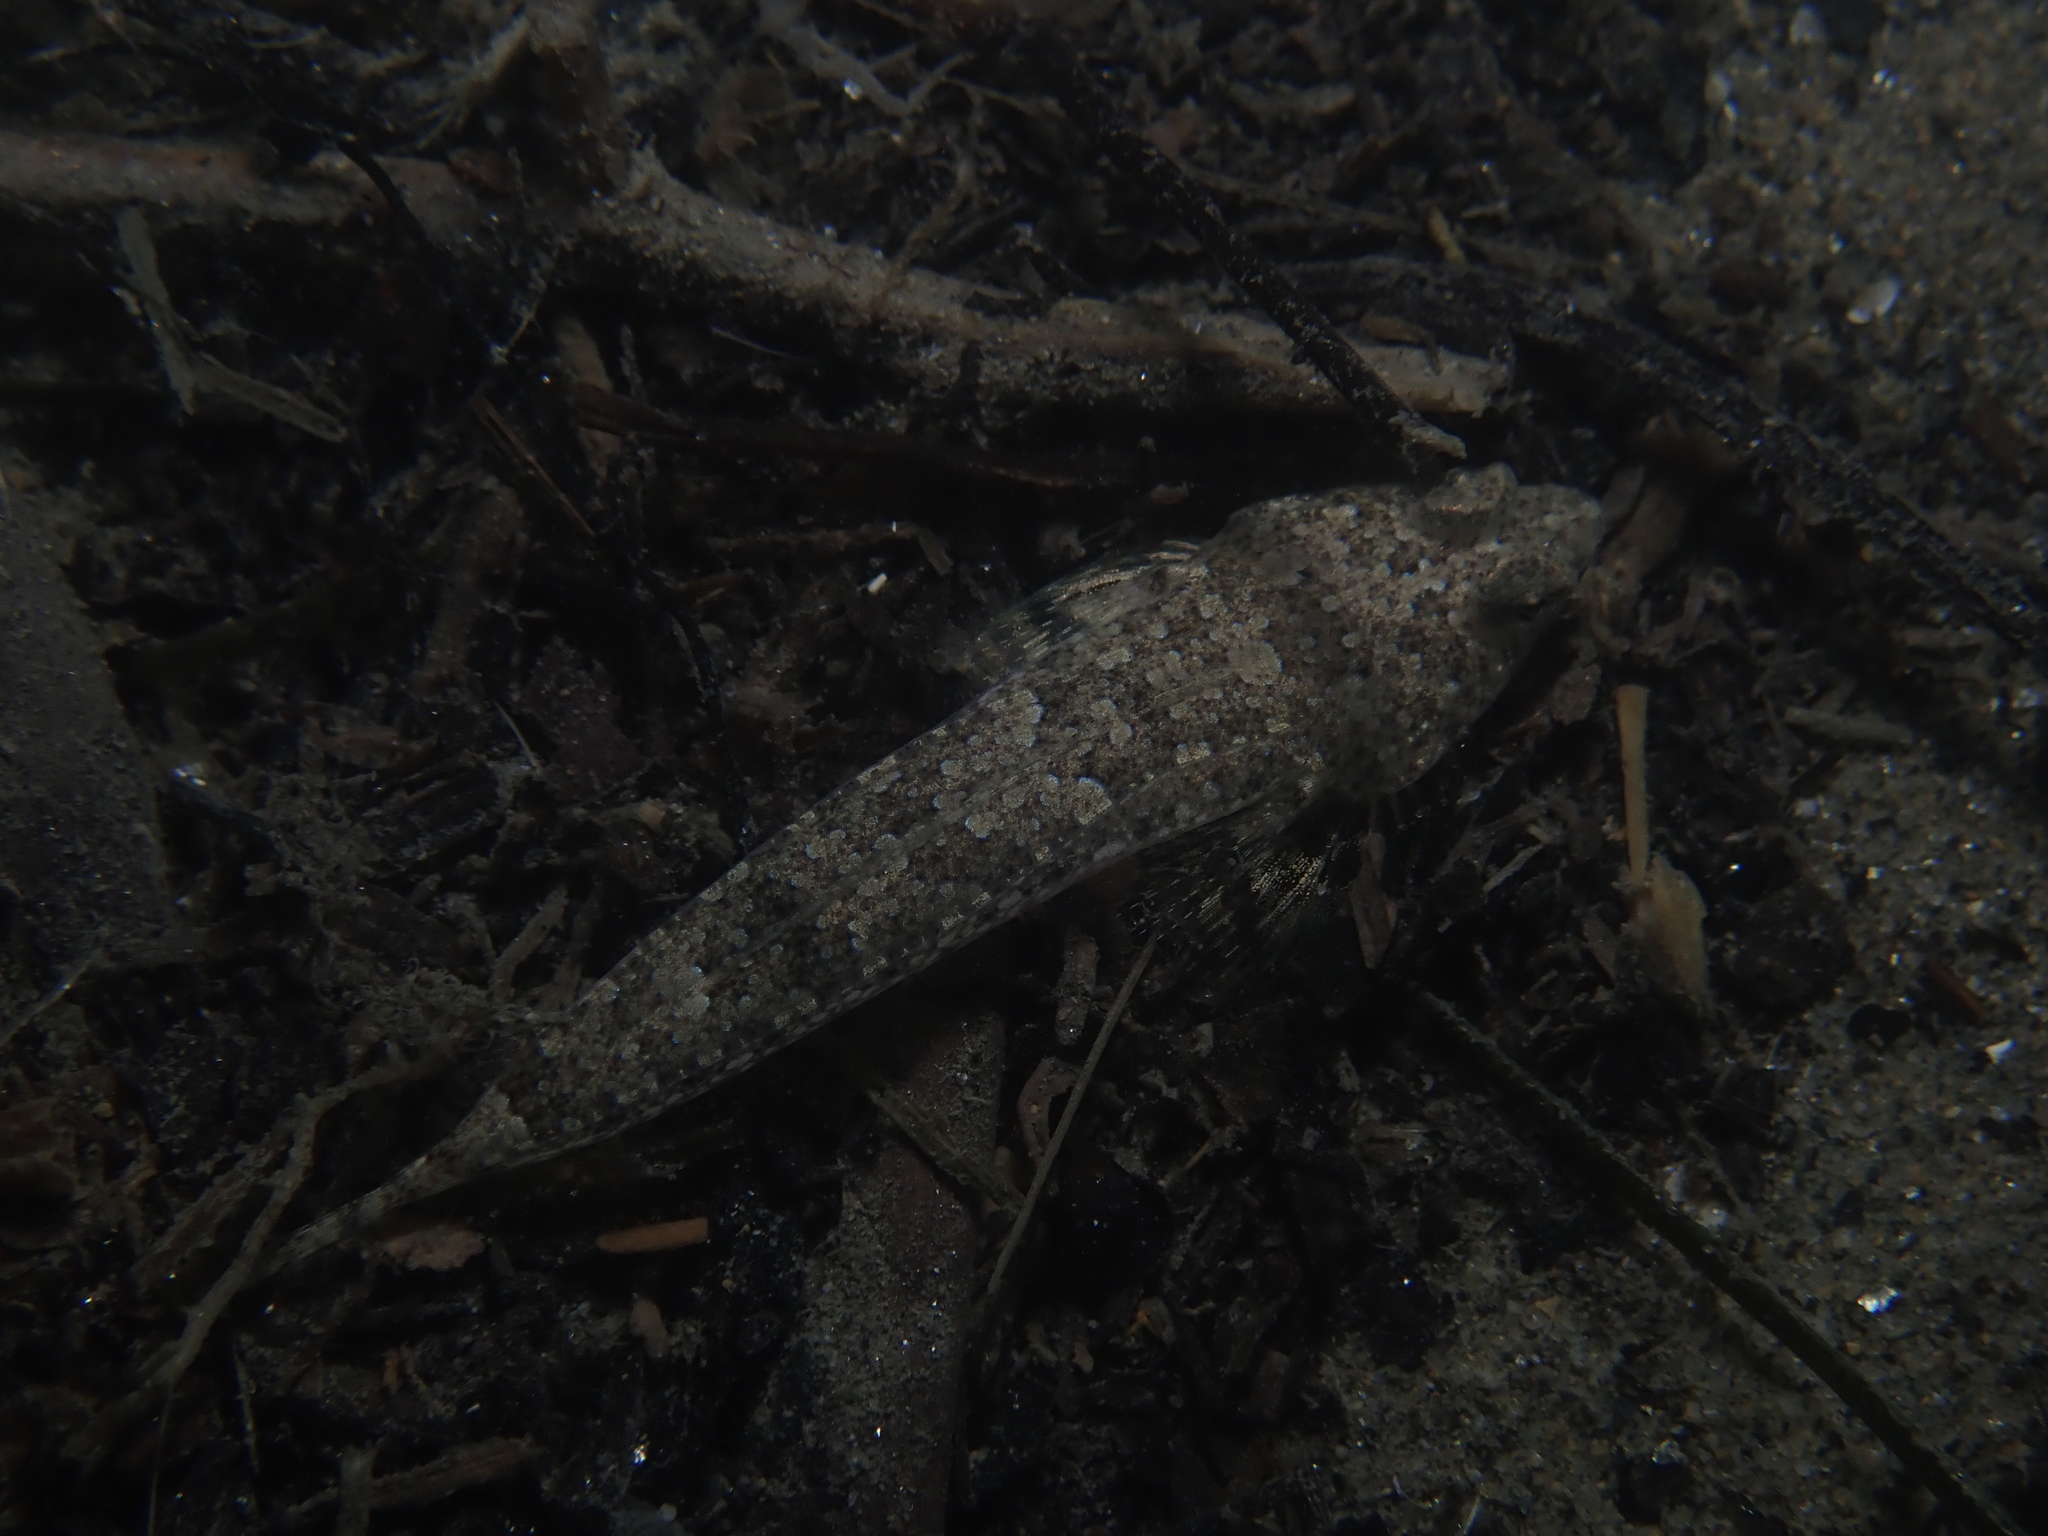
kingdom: Animalia
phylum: Chordata
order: Perciformes
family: Callionymidae
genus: Callionymus
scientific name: Callionymus risso
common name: Risso’s dragonet
